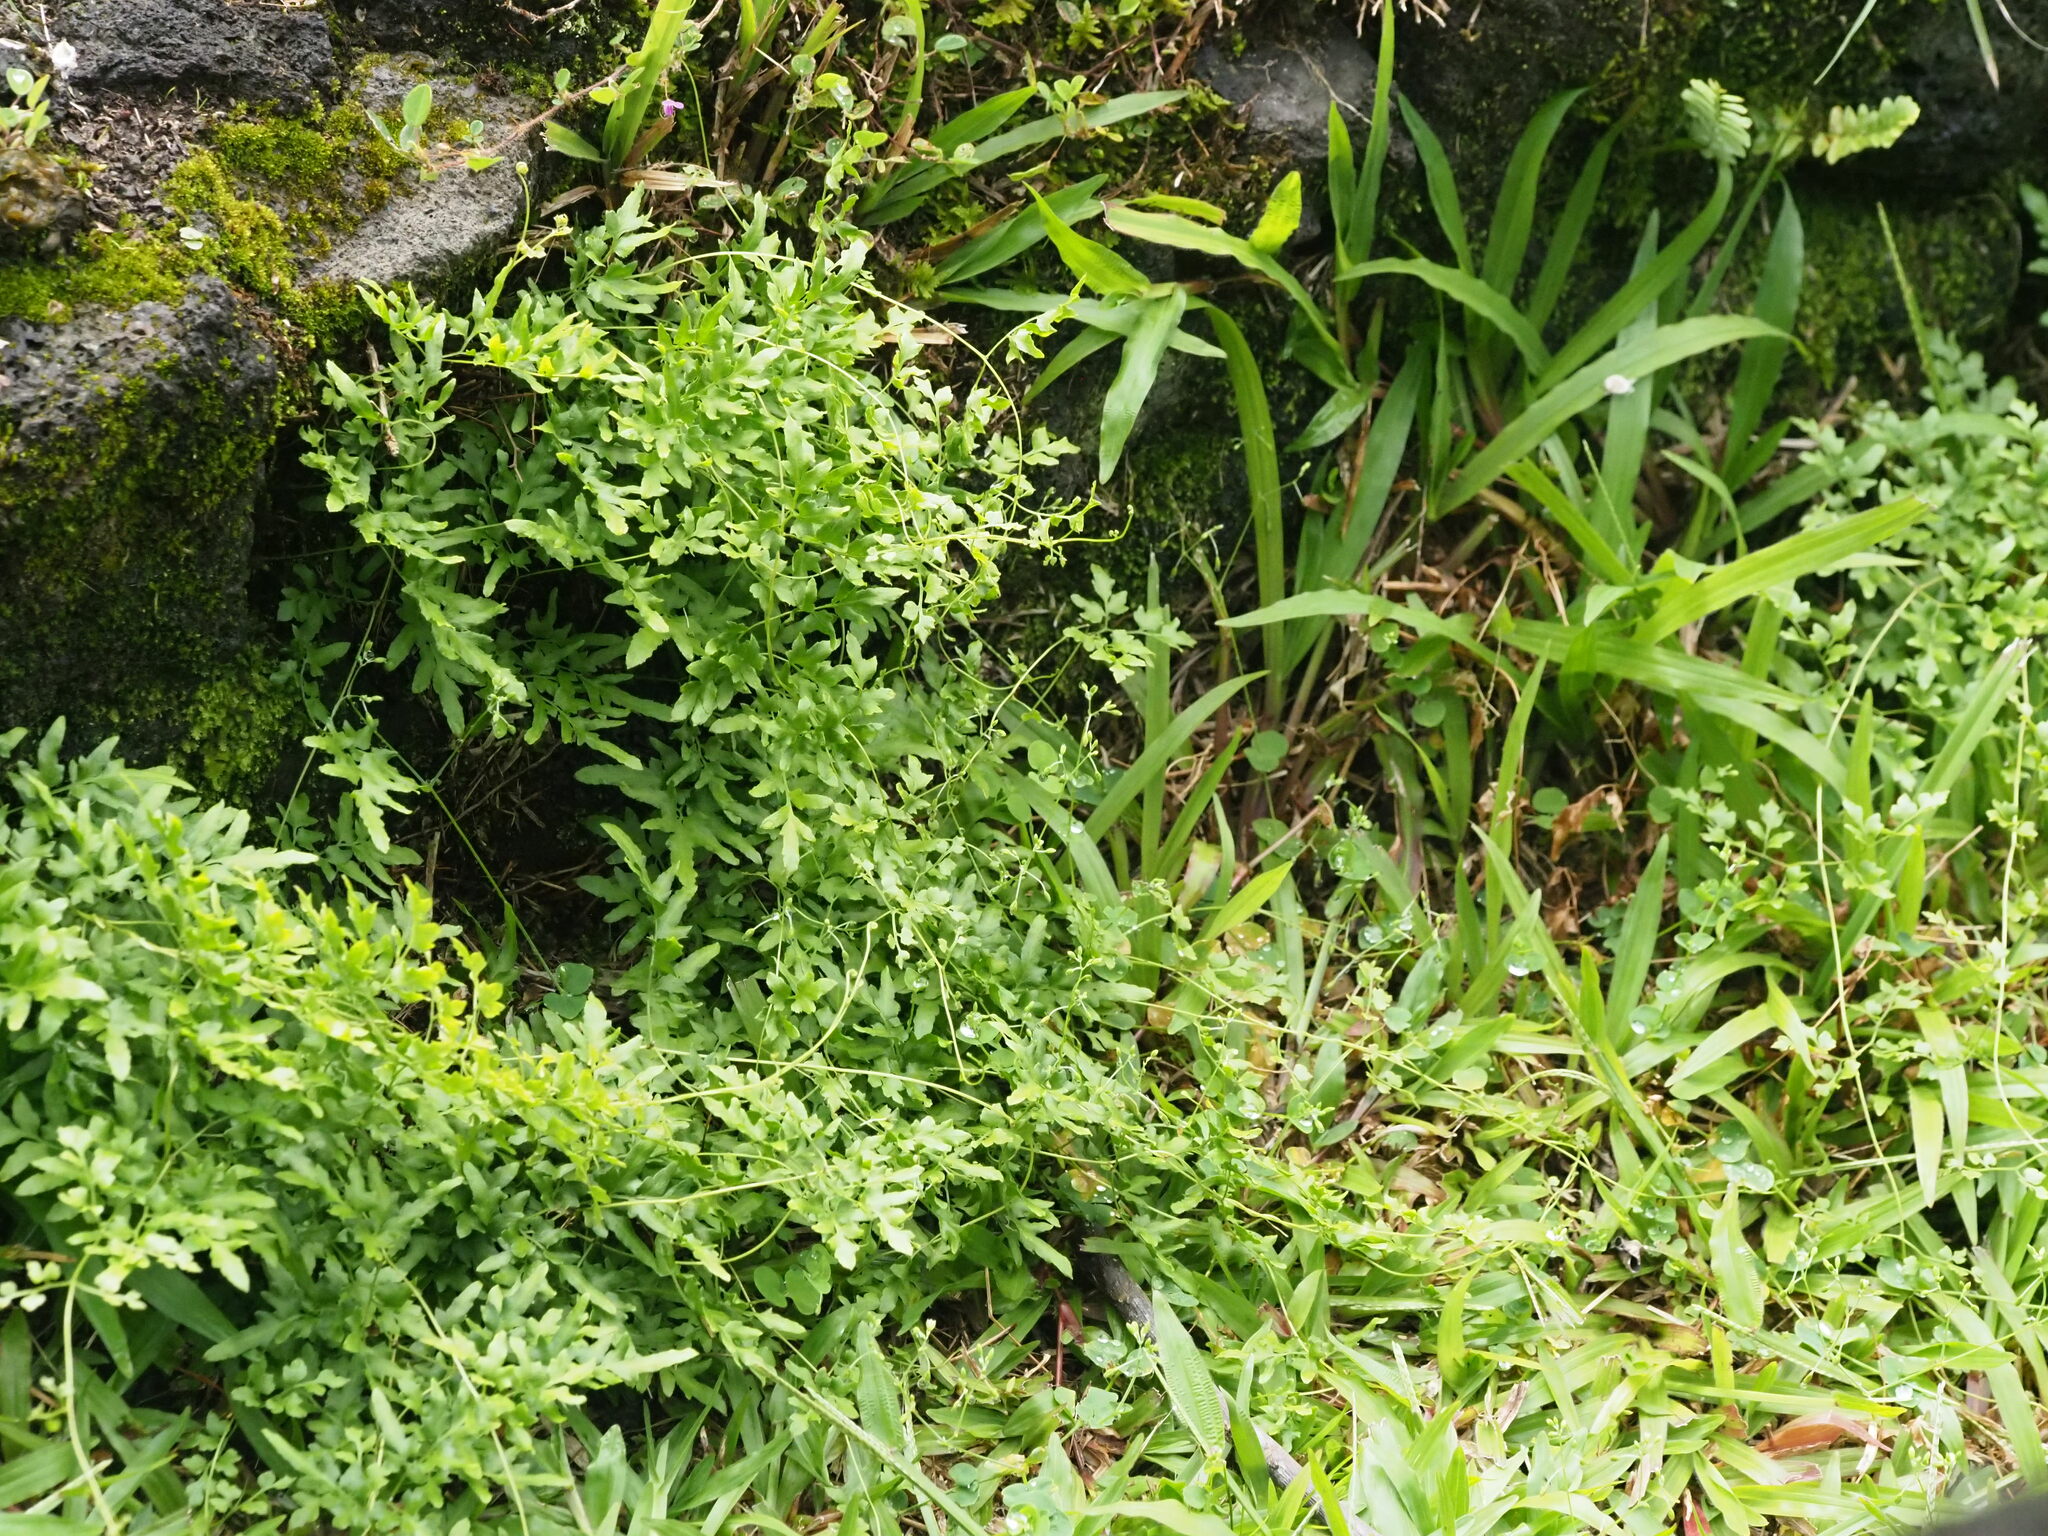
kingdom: Plantae
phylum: Tracheophyta
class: Polypodiopsida
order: Schizaeales
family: Lygodiaceae
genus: Lygodium
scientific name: Lygodium japonicum
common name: Japanese climbing fern
